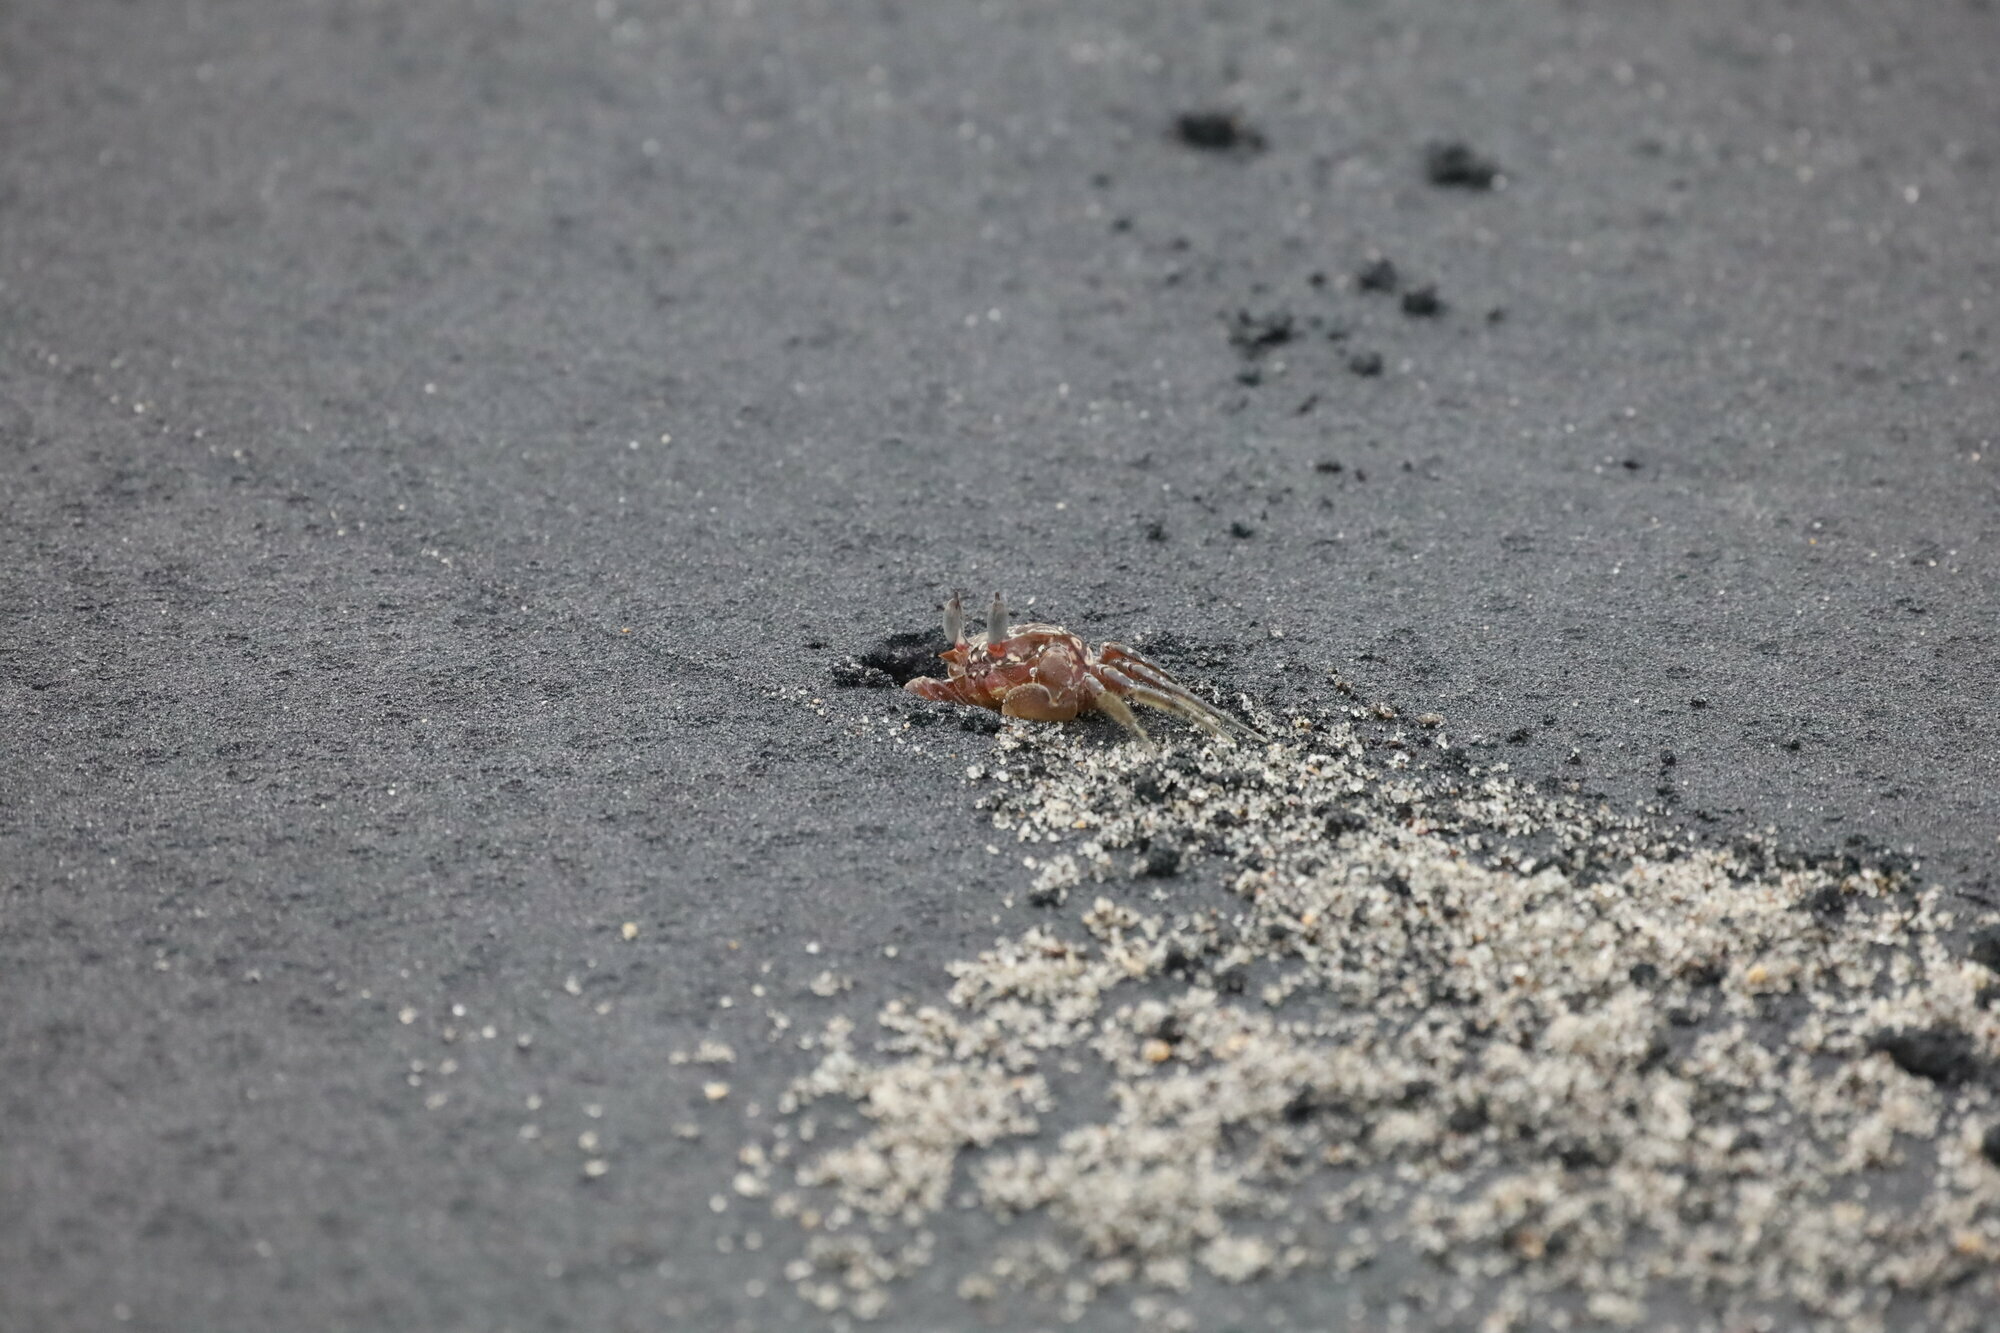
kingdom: Animalia
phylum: Arthropoda
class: Malacostraca
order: Decapoda
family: Ocypodidae
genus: Ocypode
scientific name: Ocypode gaudichaudii
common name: Pacific ghost crab
